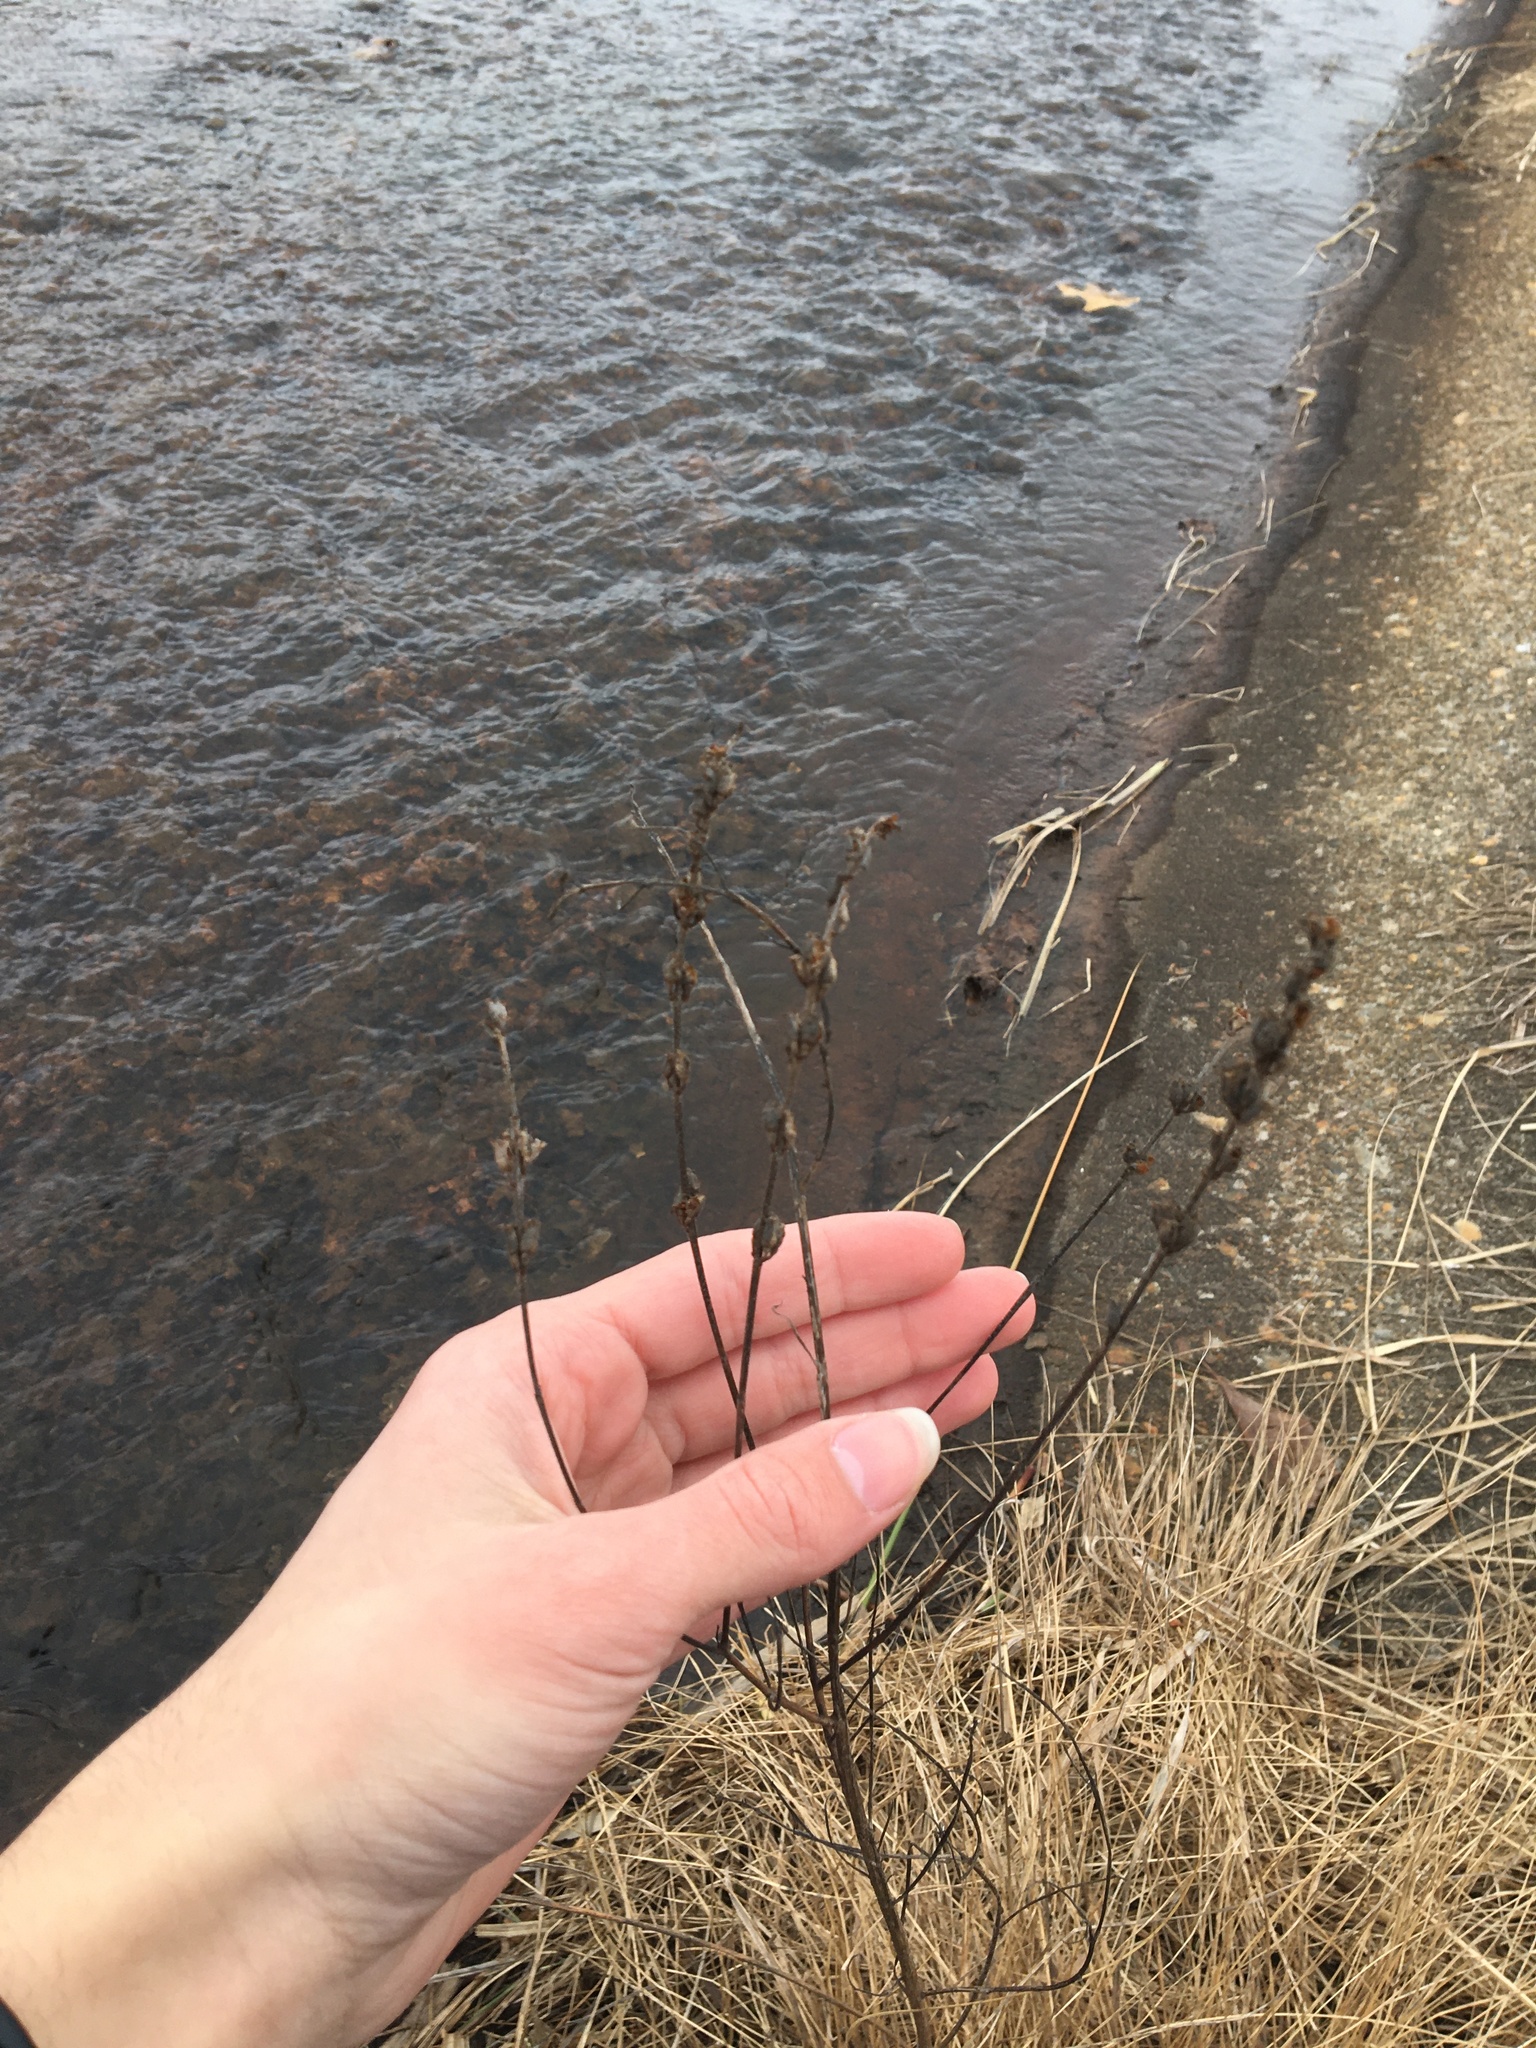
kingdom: Plantae
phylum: Tracheophyta
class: Magnoliopsida
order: Myrtales
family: Lythraceae
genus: Lythrum
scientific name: Lythrum salicaria
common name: Purple loosestrife
